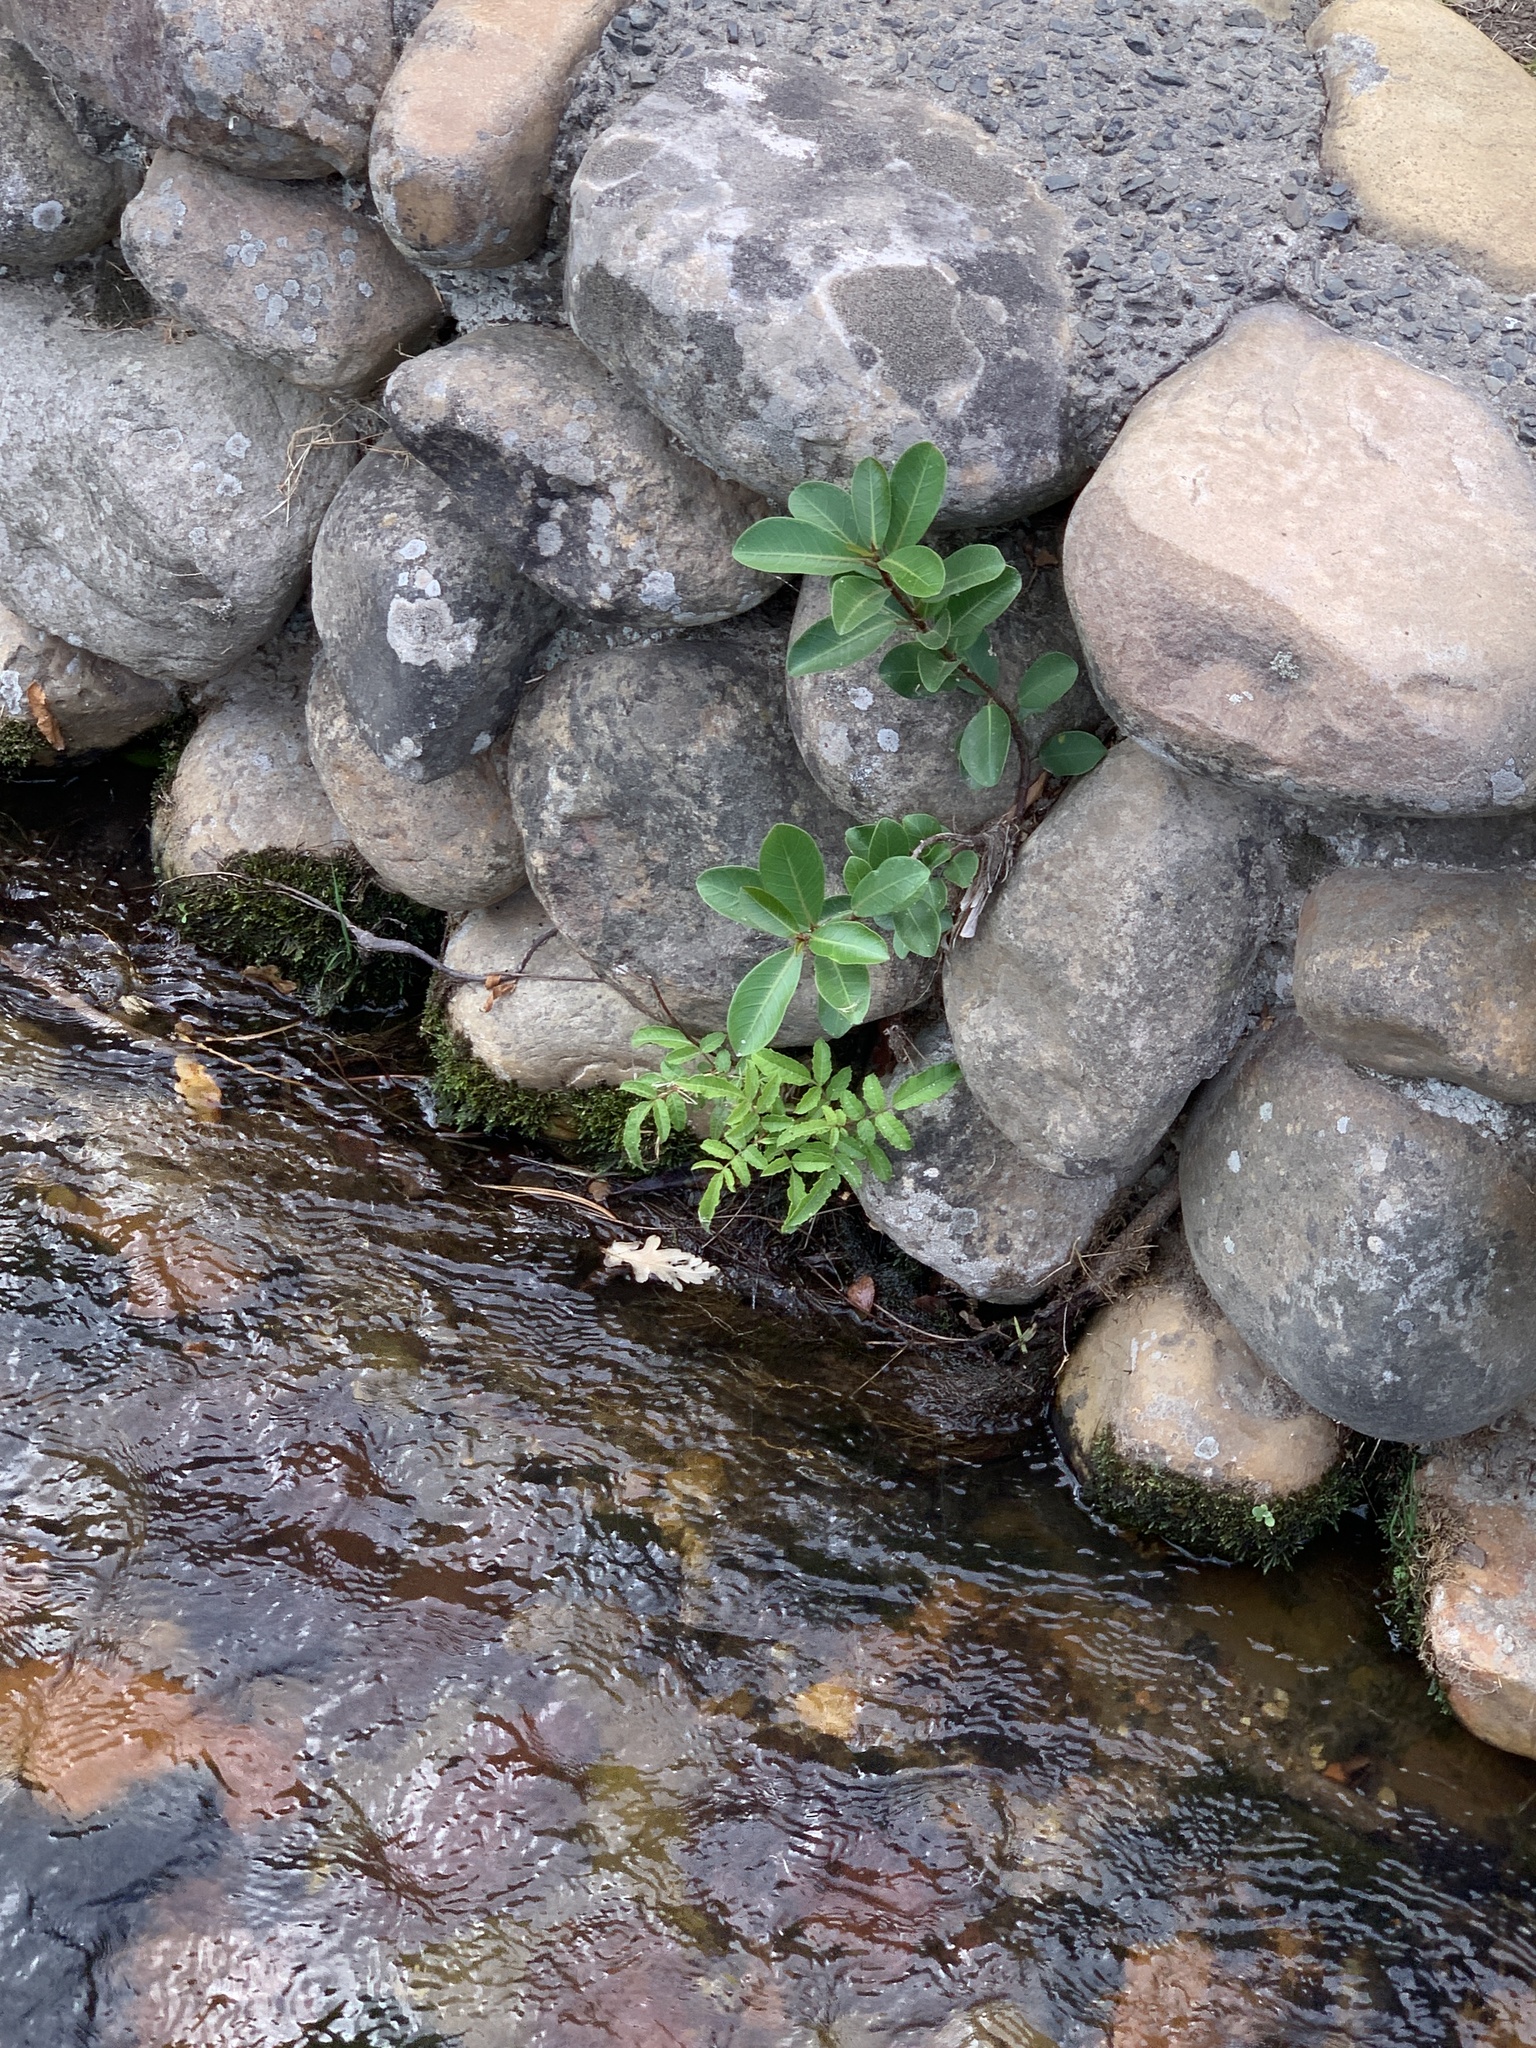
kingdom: Plantae
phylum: Tracheophyta
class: Magnoliopsida
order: Sapindales
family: Anacardiaceae
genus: Schinus
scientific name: Schinus terebinthifolia
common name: Brazilian peppertree
